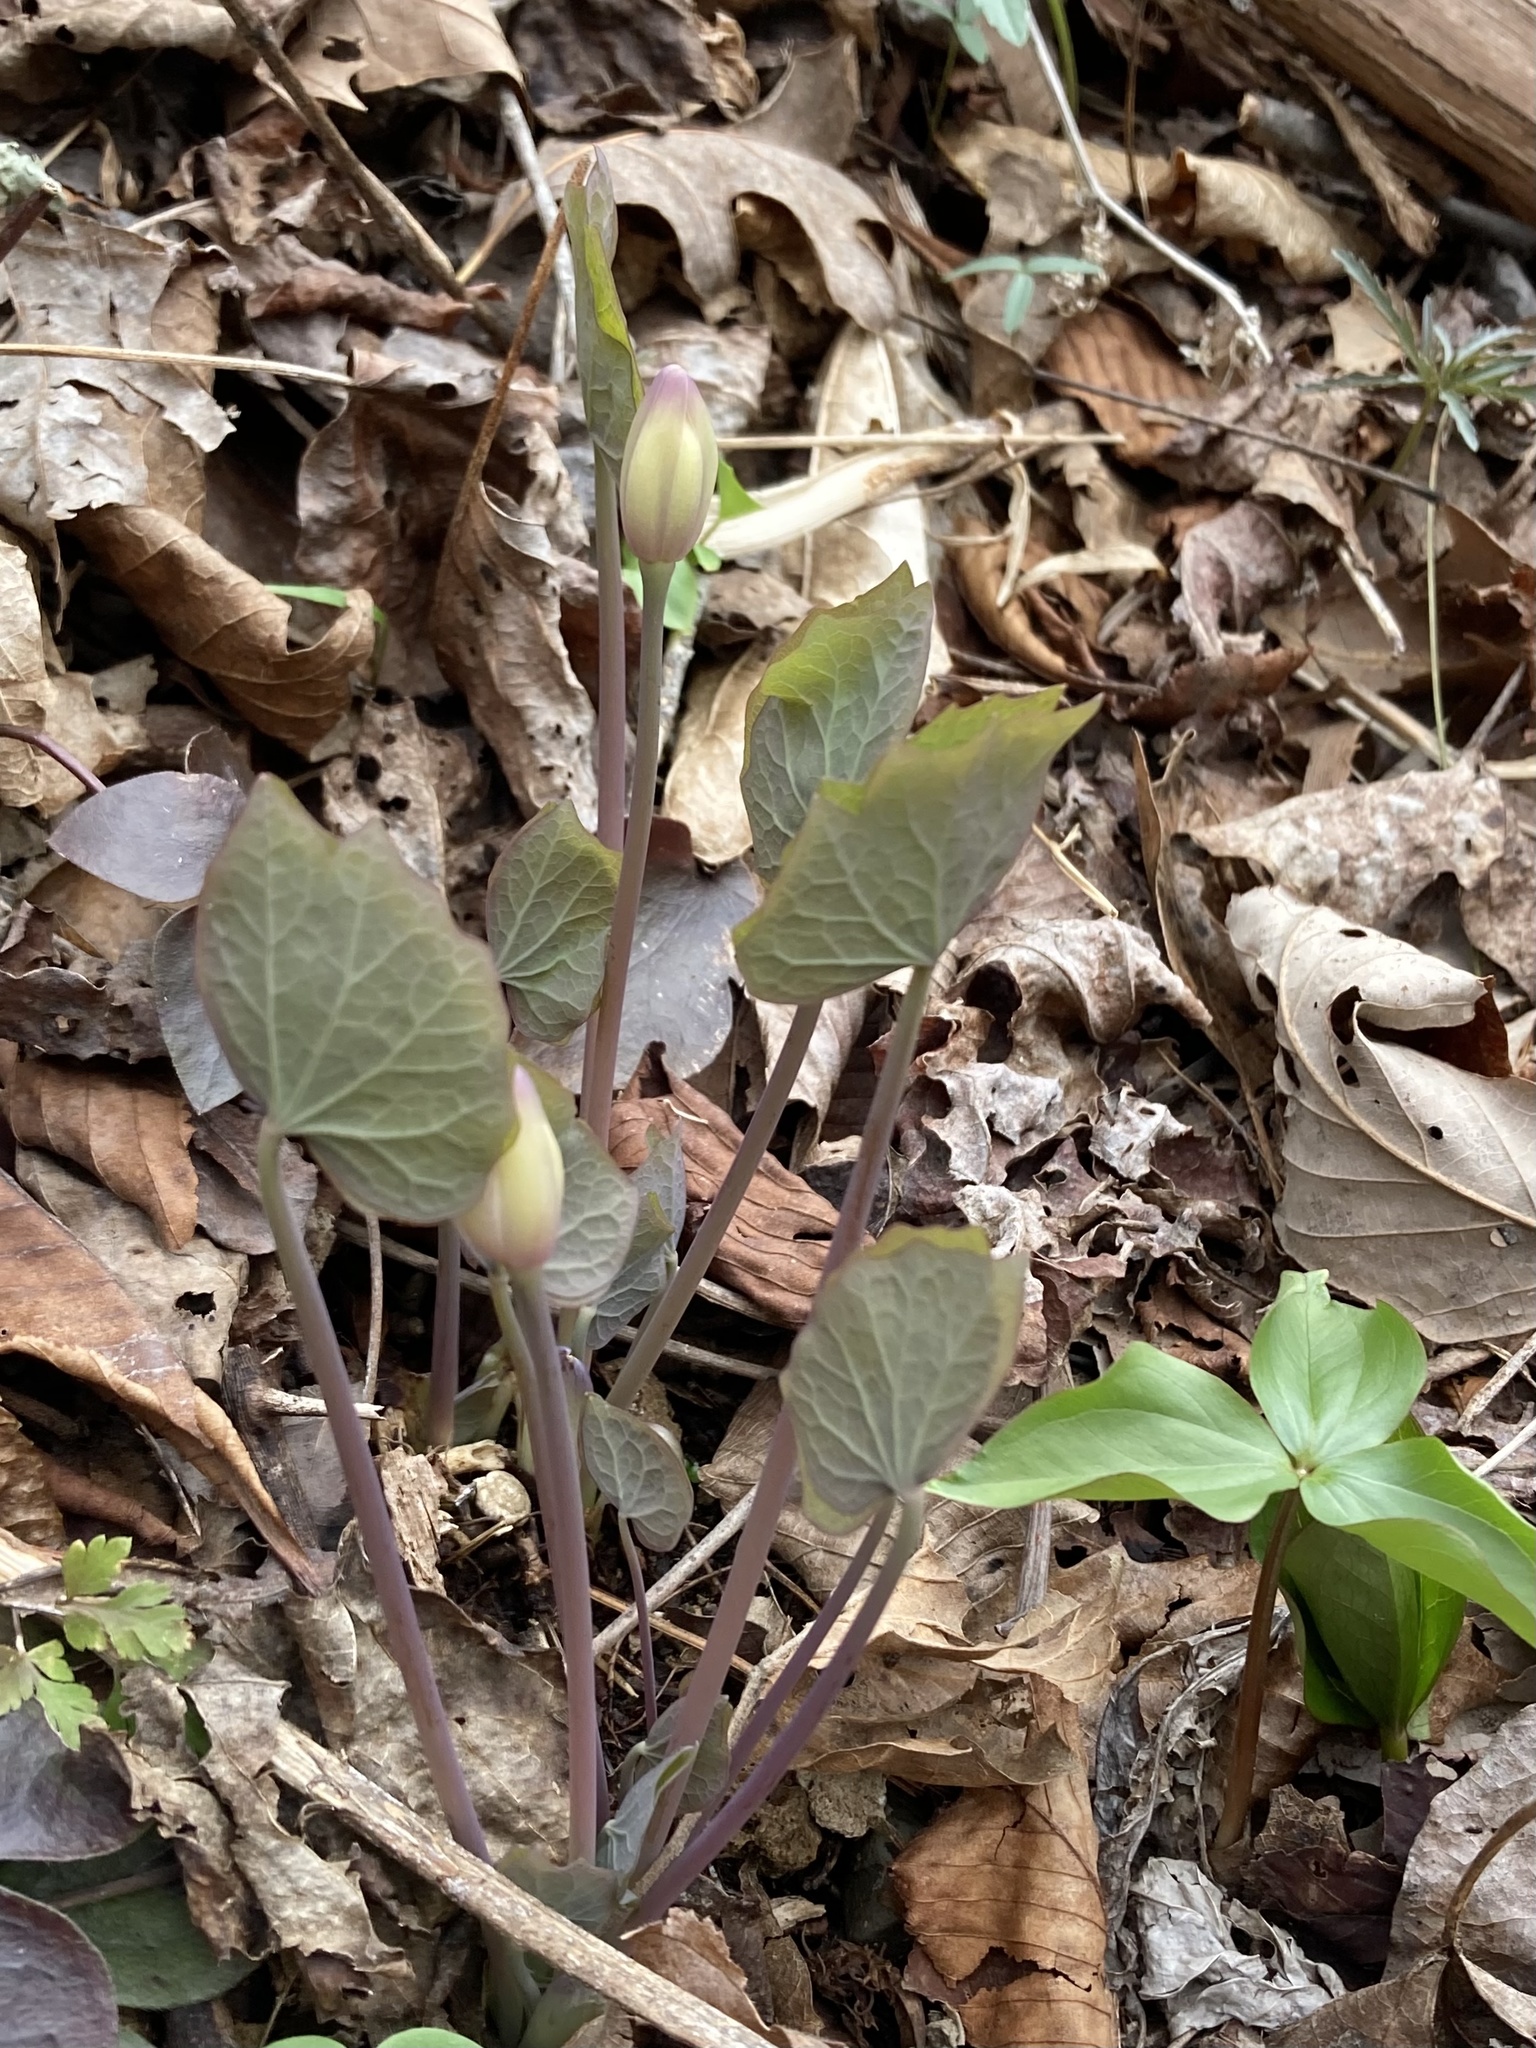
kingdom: Plantae
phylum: Tracheophyta
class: Magnoliopsida
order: Ranunculales
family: Berberidaceae
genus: Jeffersonia
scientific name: Jeffersonia diphylla
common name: Rheumatism-root
